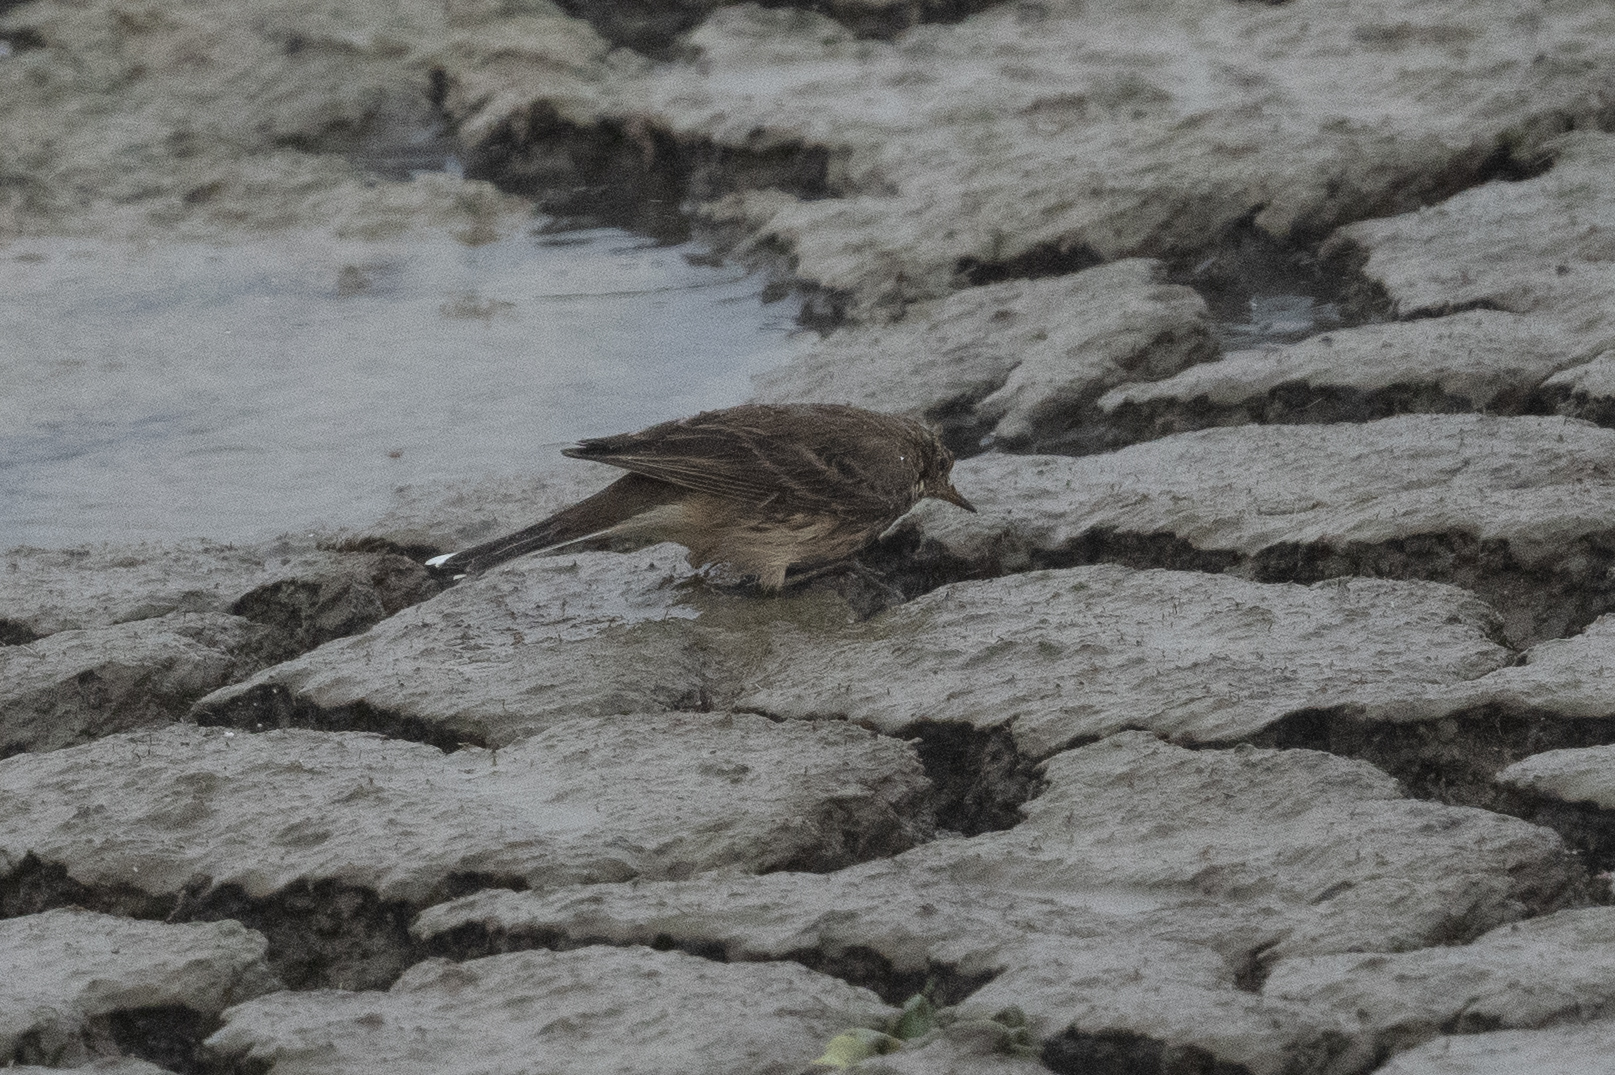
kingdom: Animalia
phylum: Chordata
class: Aves
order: Passeriformes
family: Motacillidae
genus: Anthus
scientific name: Anthus rubescens
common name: Buff-bellied pipit
